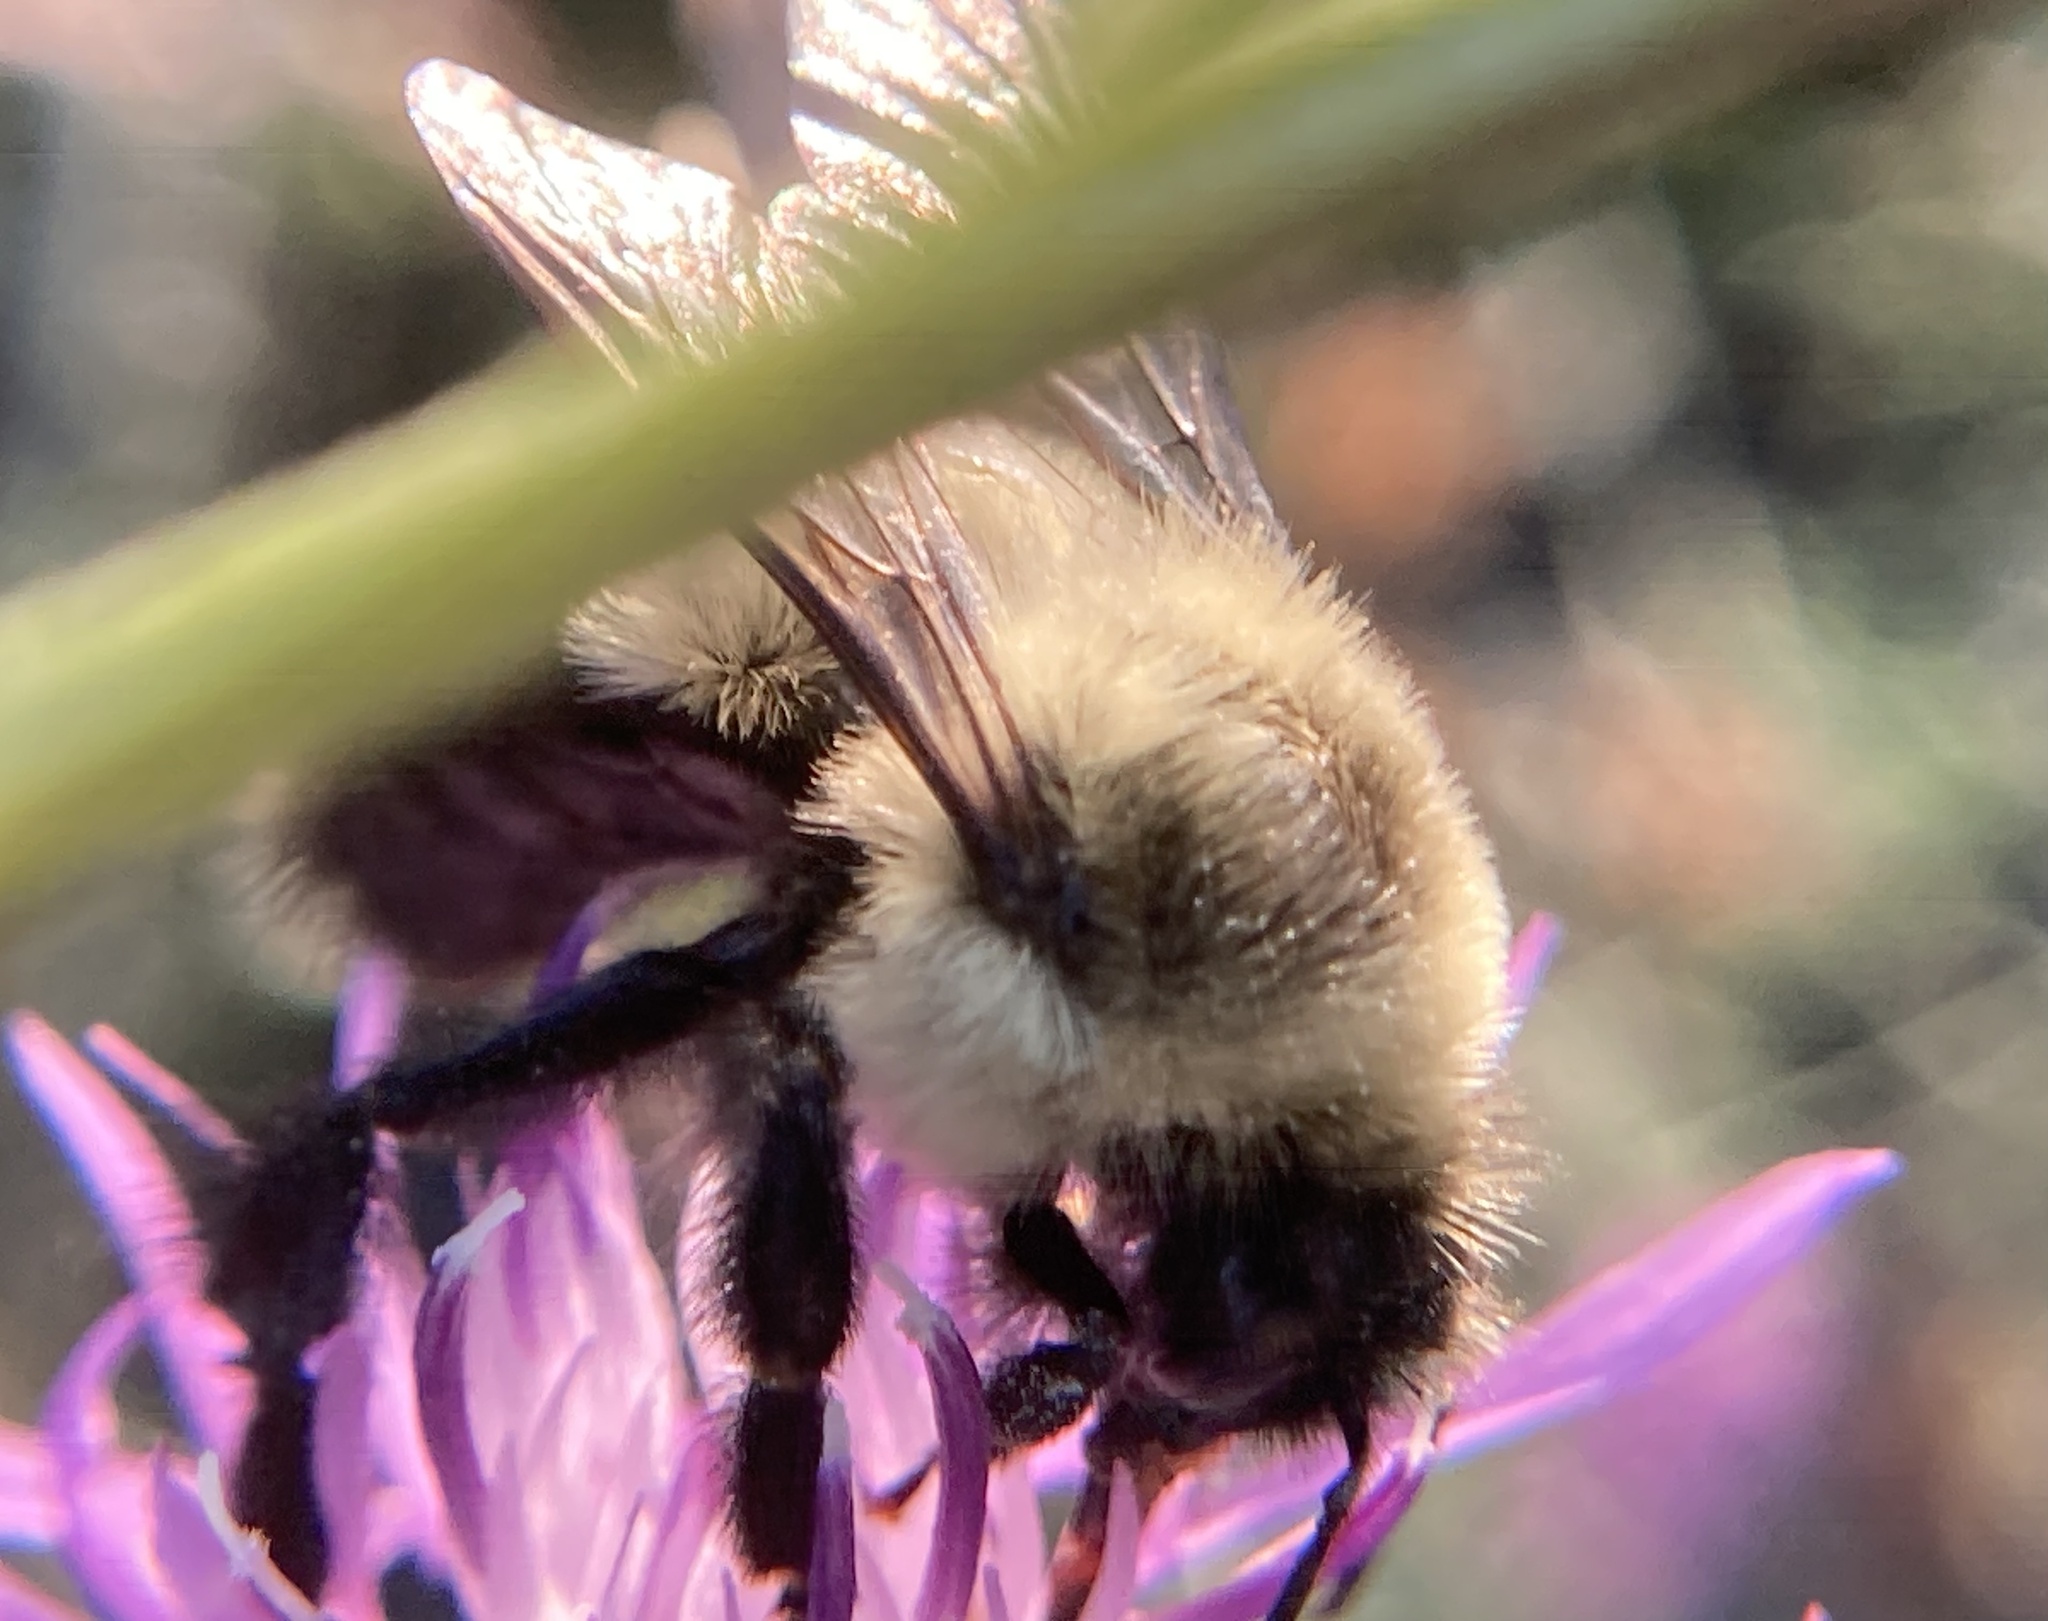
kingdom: Animalia
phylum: Arthropoda
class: Insecta
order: Hymenoptera
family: Apidae
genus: Bombus
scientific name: Bombus impatiens
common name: Common eastern bumble bee
